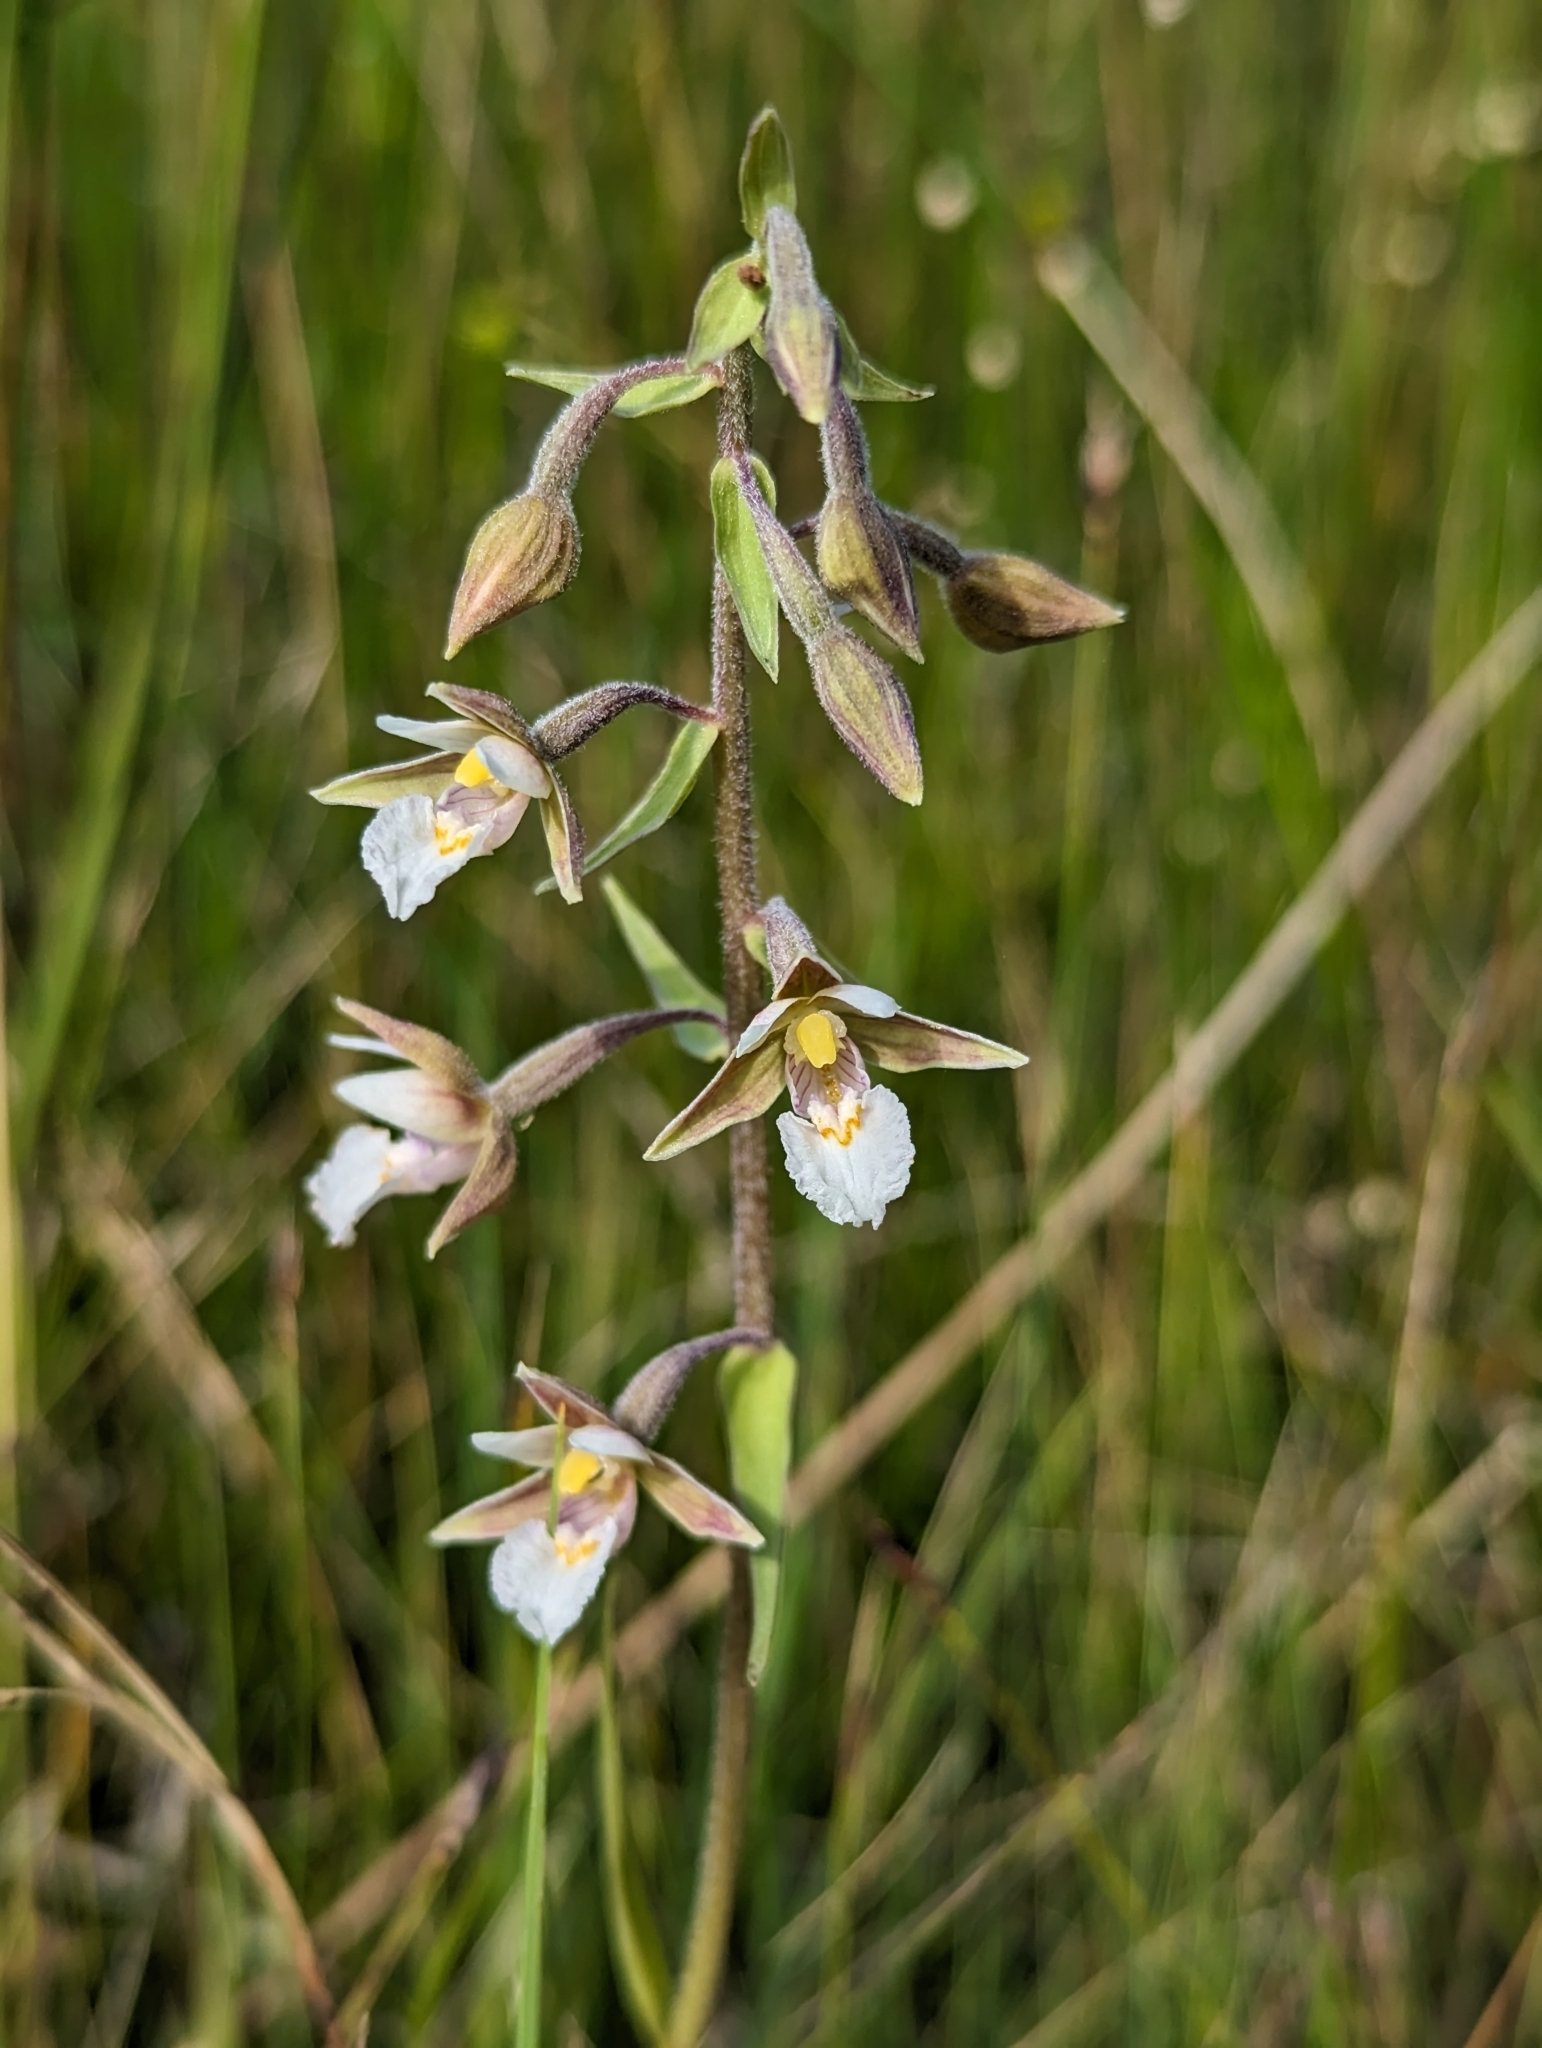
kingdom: Plantae
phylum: Tracheophyta
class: Liliopsida
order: Asparagales
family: Orchidaceae
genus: Epipactis
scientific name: Epipactis palustris
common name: Marsh helleborine
